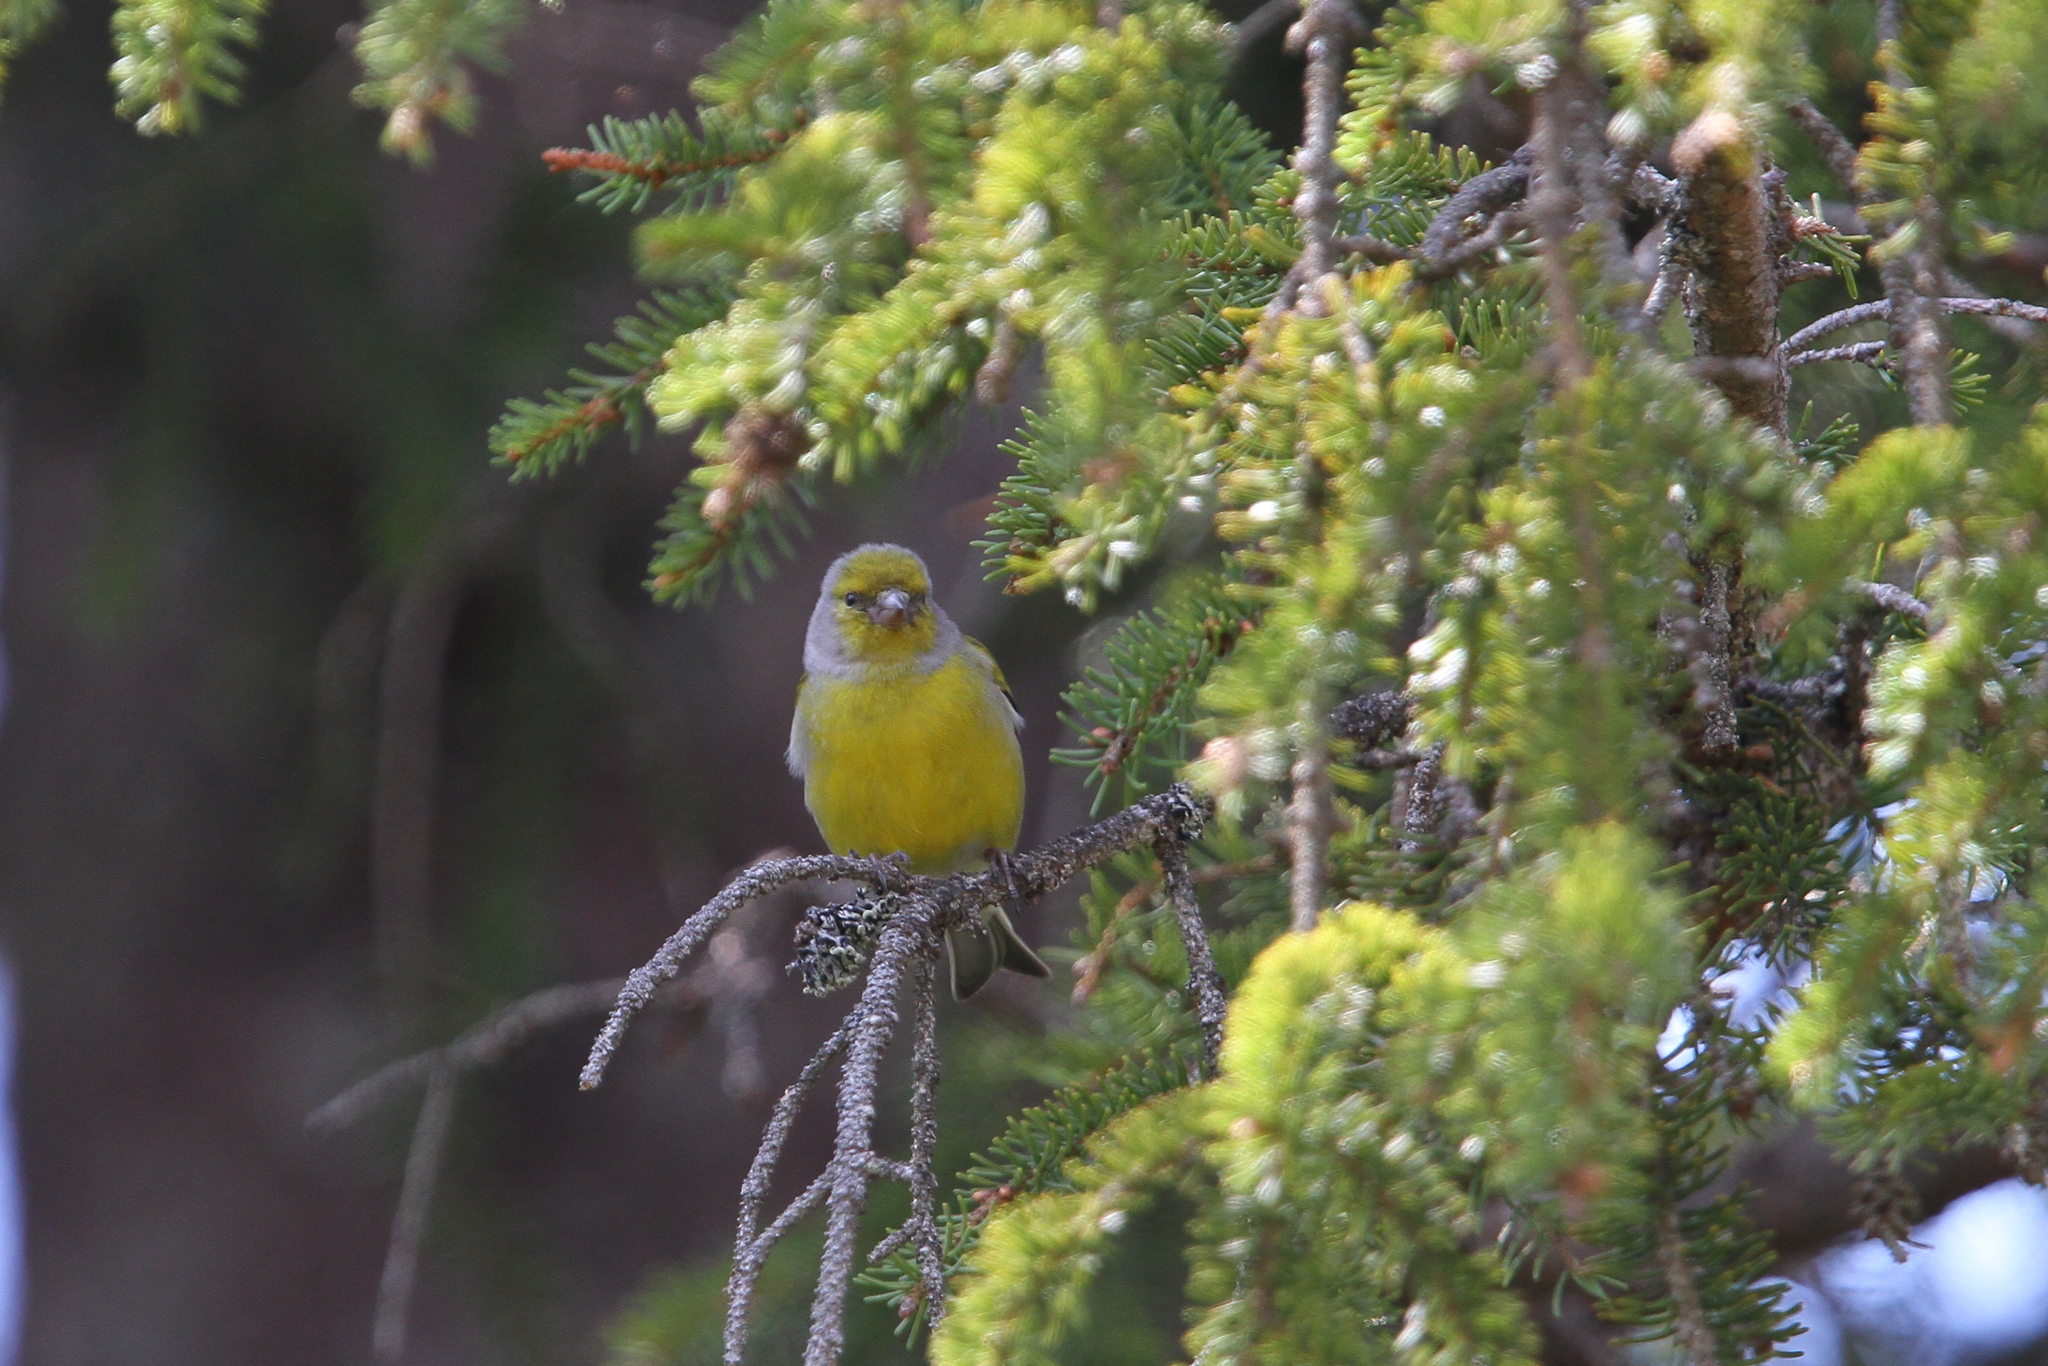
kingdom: Animalia
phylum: Chordata
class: Aves
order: Passeriformes
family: Fringillidae
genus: Carduelis
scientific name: Carduelis citrinella
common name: Citril finch
